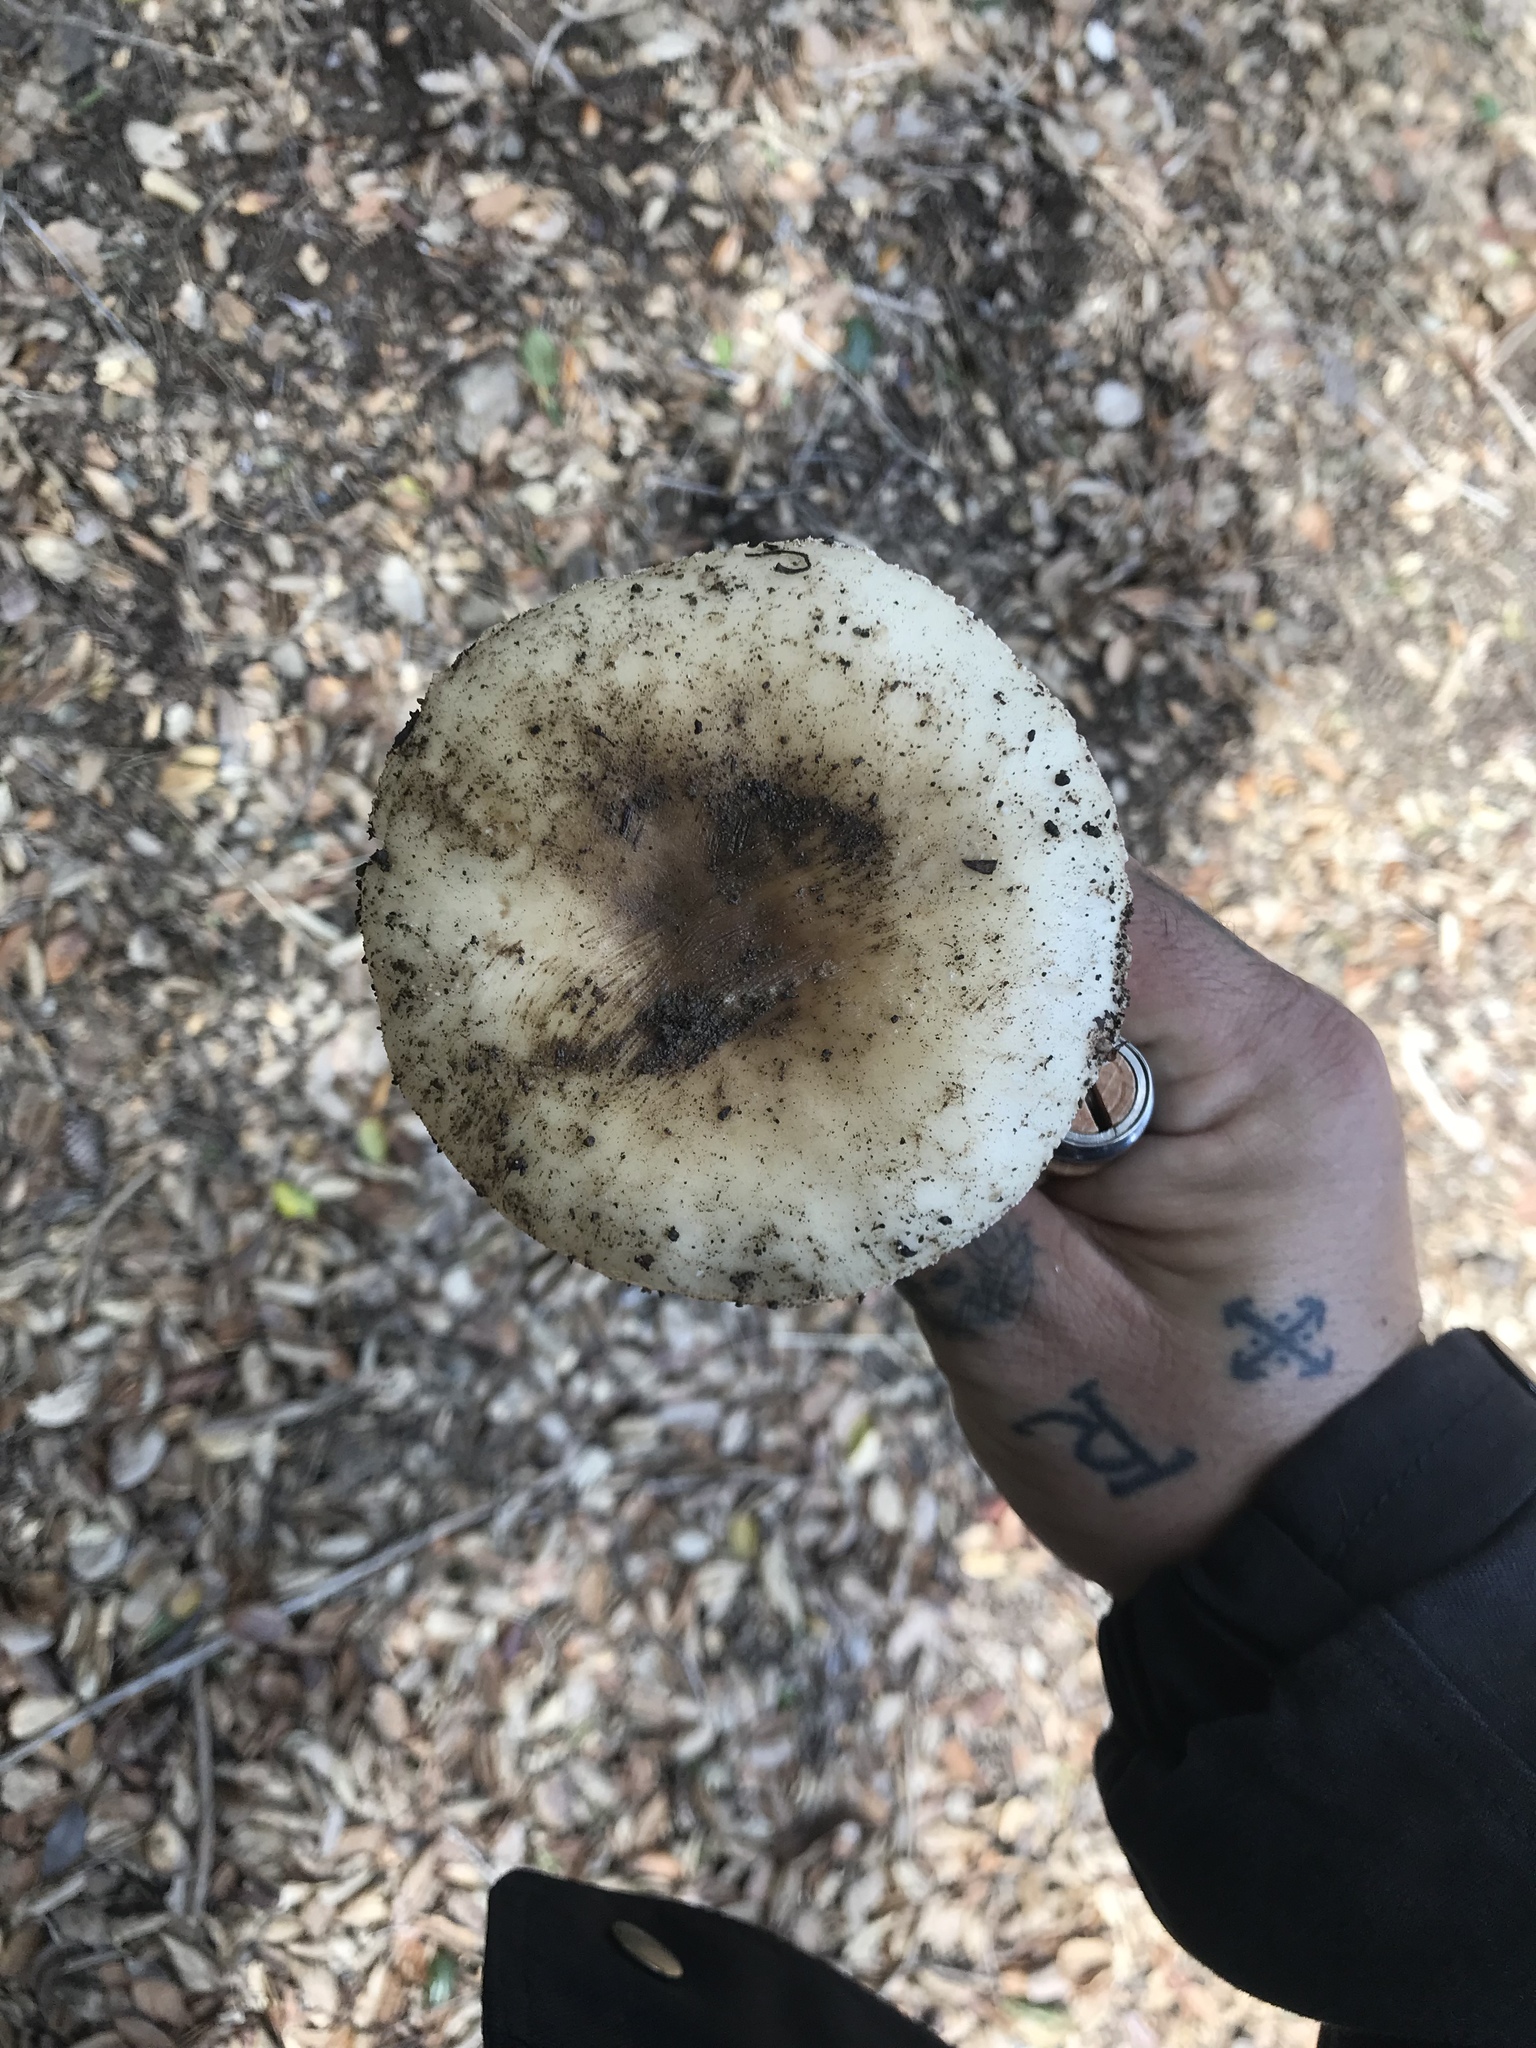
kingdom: Fungi
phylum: Basidiomycota
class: Agaricomycetes
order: Agaricales
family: Amanitaceae
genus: Amanita
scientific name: Amanita ocreata
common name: Western destroying angel
